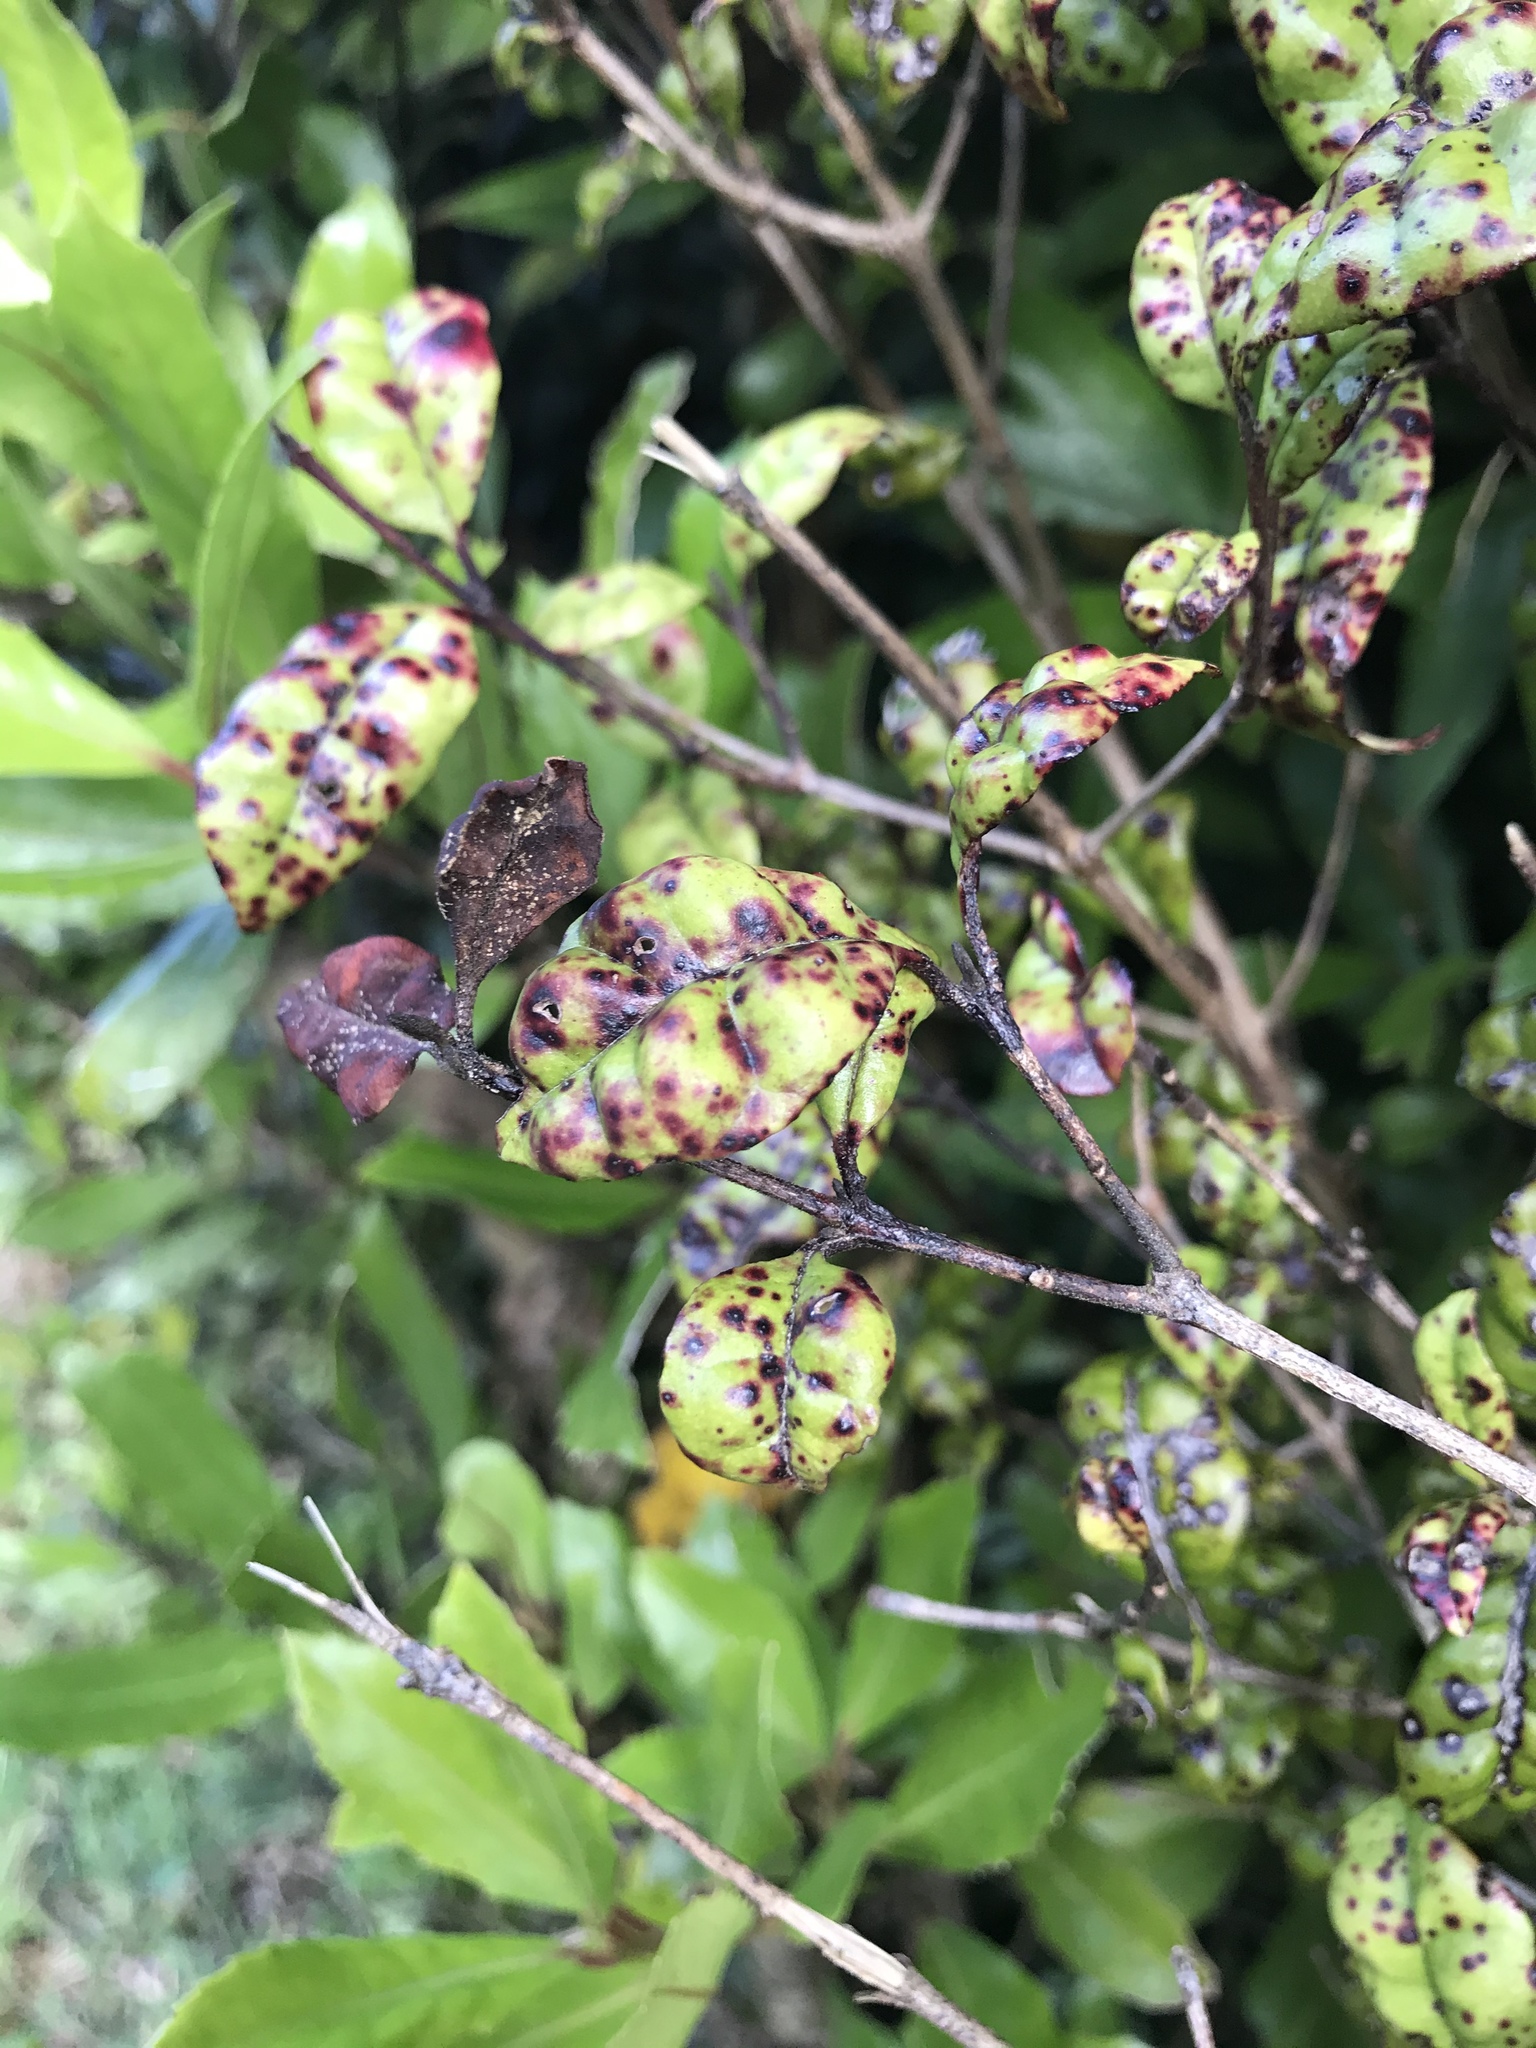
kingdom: Fungi
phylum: Basidiomycota
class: Pucciniomycetes
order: Pucciniales
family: Sphaerophragmiaceae
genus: Austropuccinia
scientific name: Austropuccinia psidii
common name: Myrtle rust
